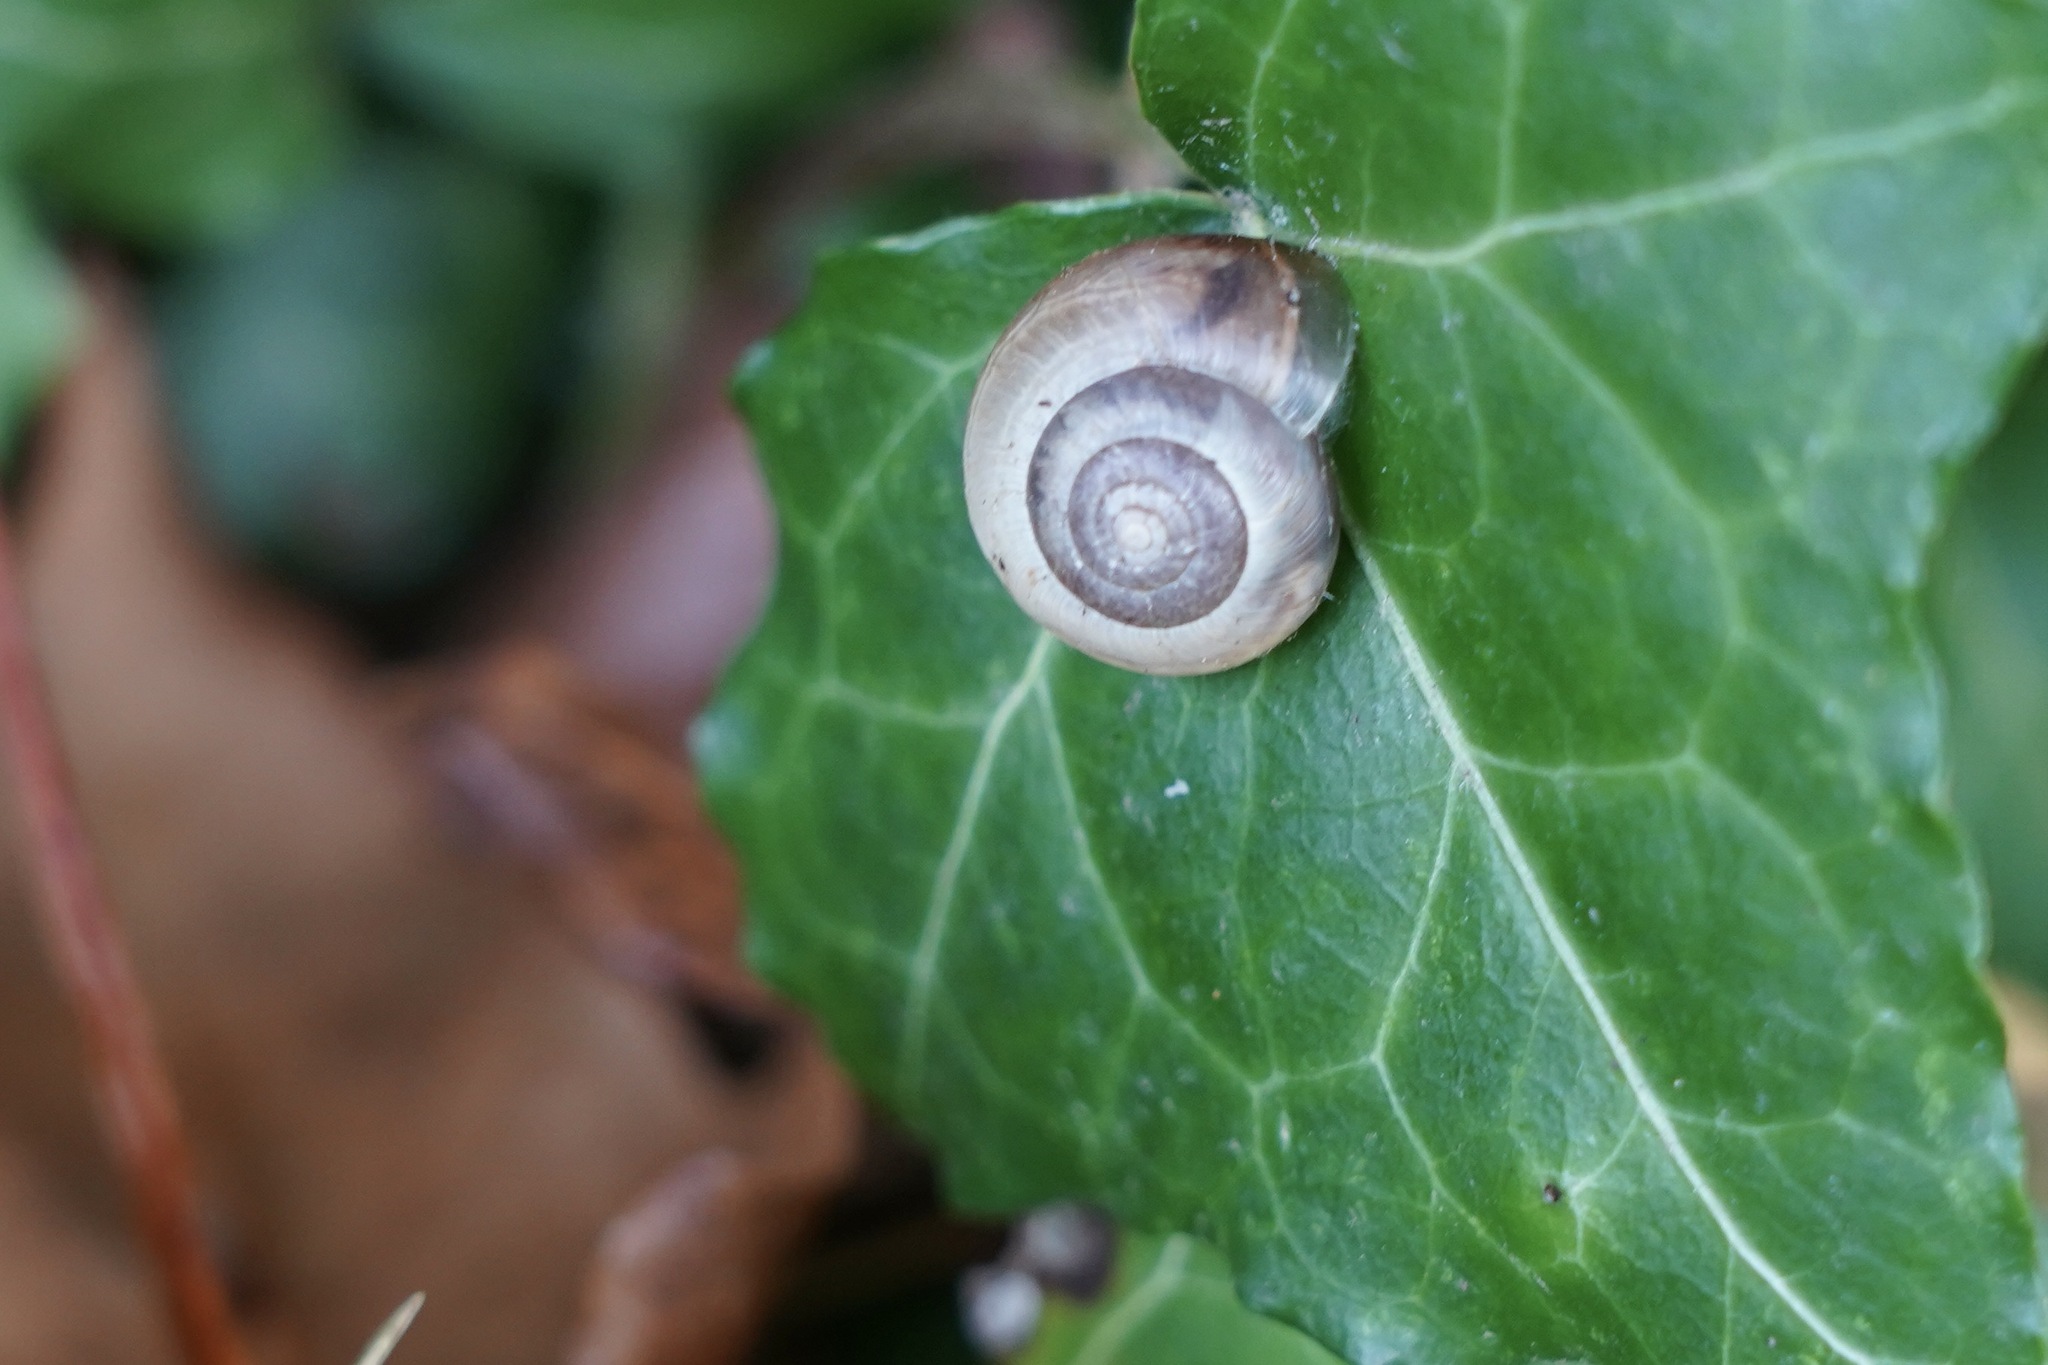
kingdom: Animalia
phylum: Mollusca
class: Gastropoda
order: Stylommatophora
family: Hygromiidae
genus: Monacha
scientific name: Monacha cantiana
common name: Kentish snail
